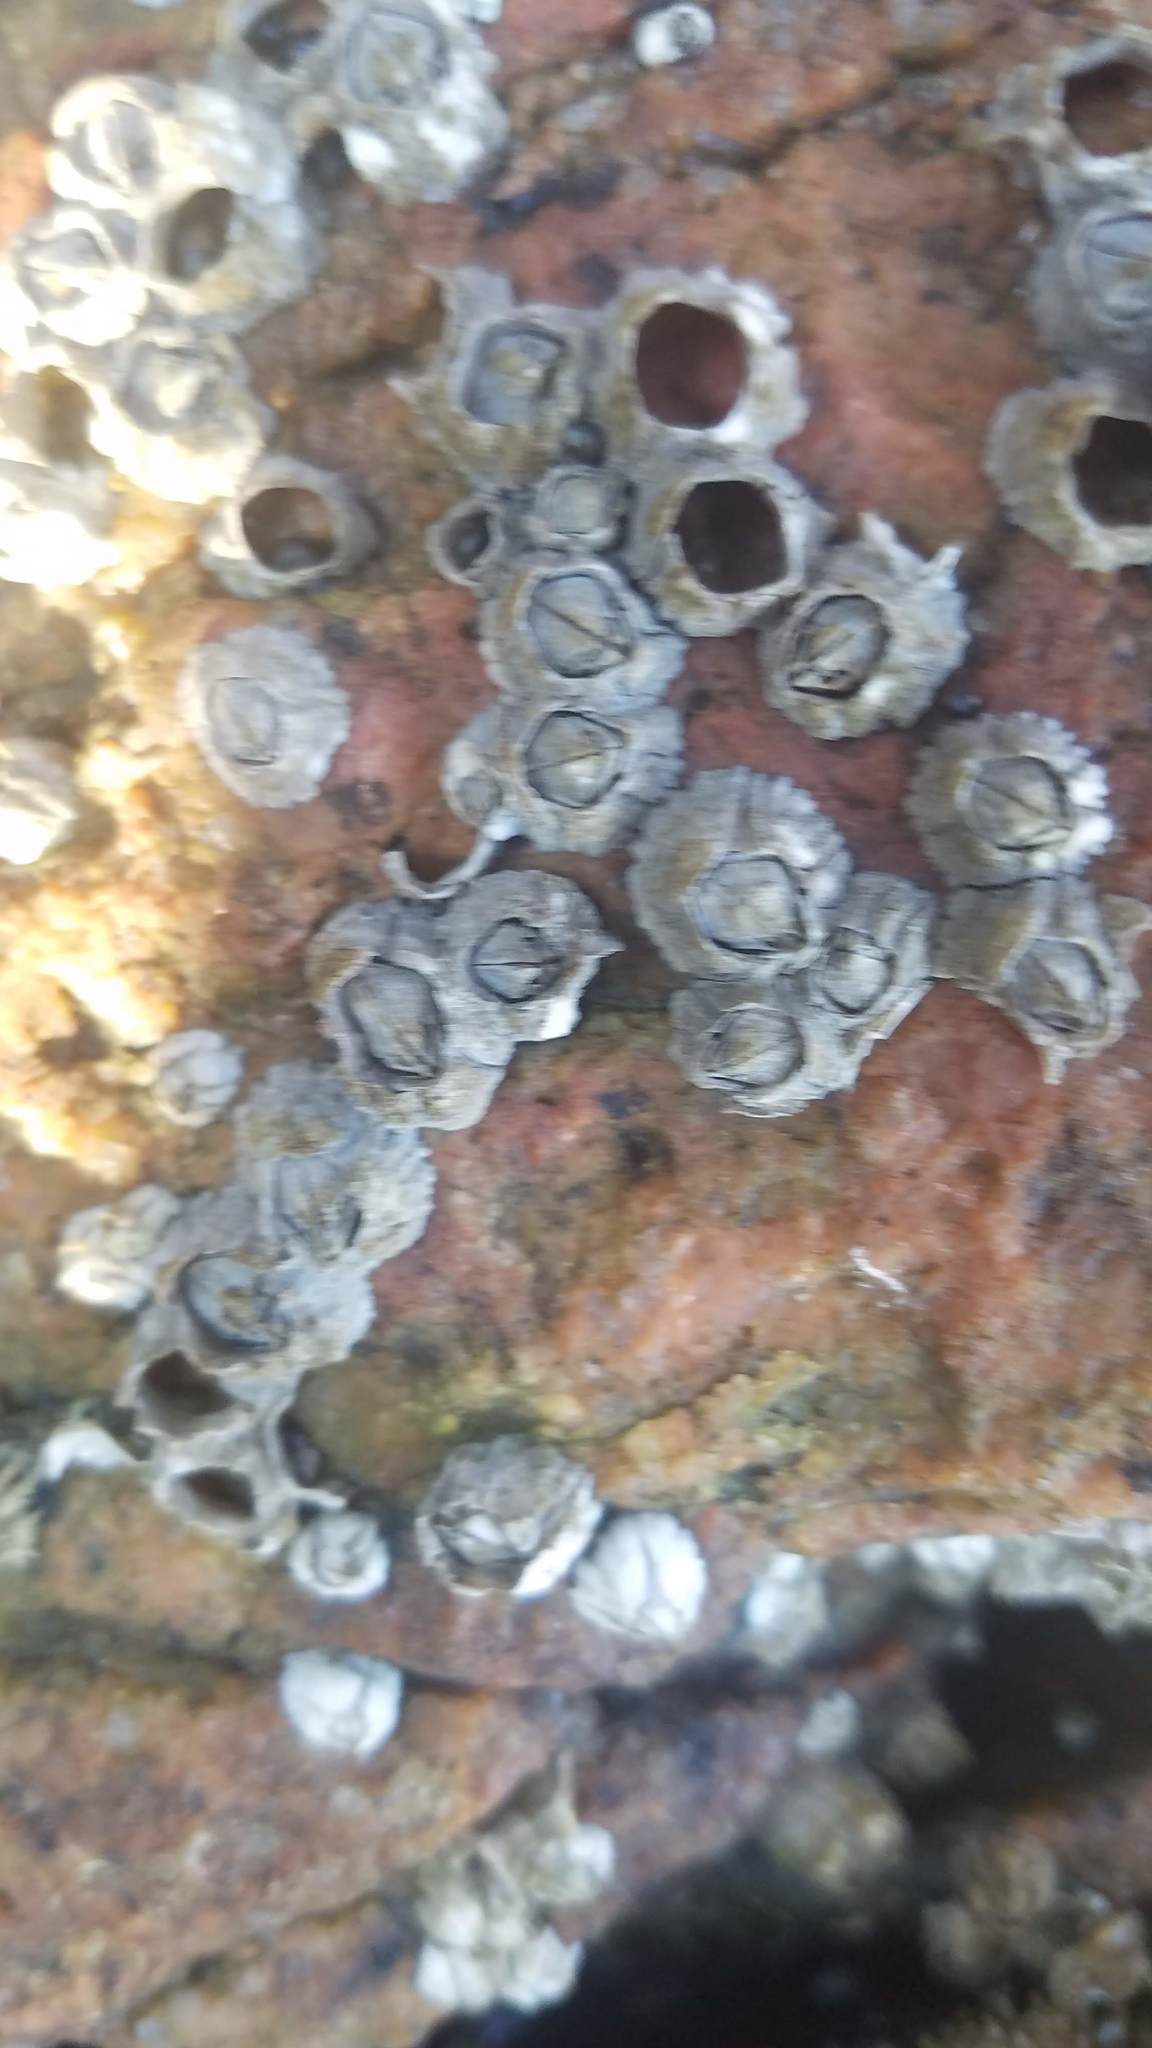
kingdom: Animalia
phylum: Arthropoda
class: Maxillopoda
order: Sessilia
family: Archaeobalanidae
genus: Semibalanus
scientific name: Semibalanus balanoides
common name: Acorn barnacle
